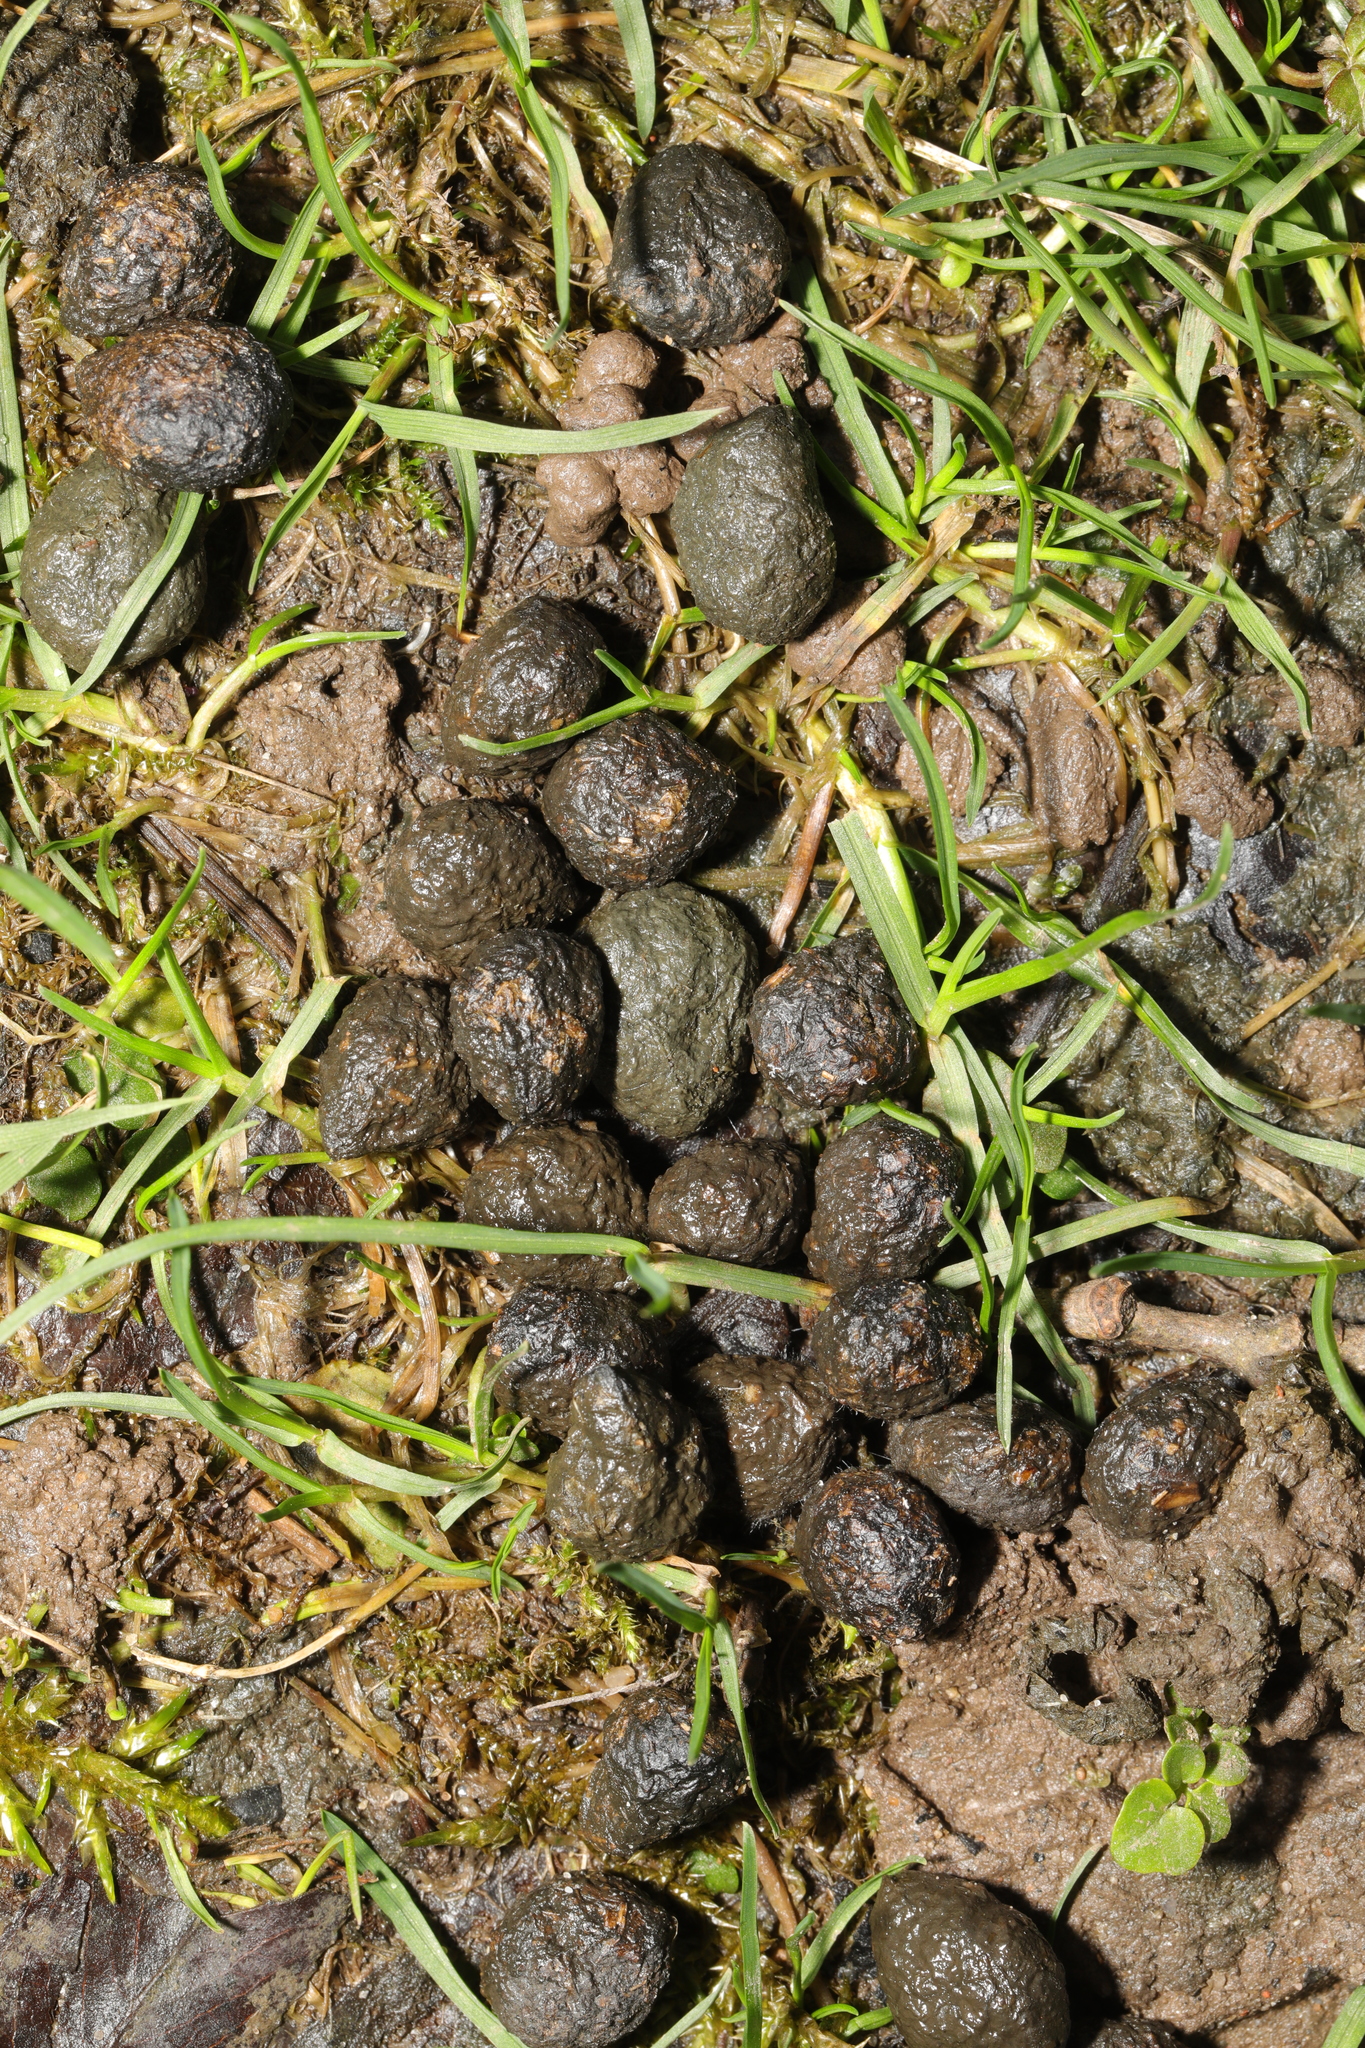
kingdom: Animalia
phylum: Chordata
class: Mammalia
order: Lagomorpha
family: Leporidae
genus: Oryctolagus
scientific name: Oryctolagus cuniculus
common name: European rabbit
